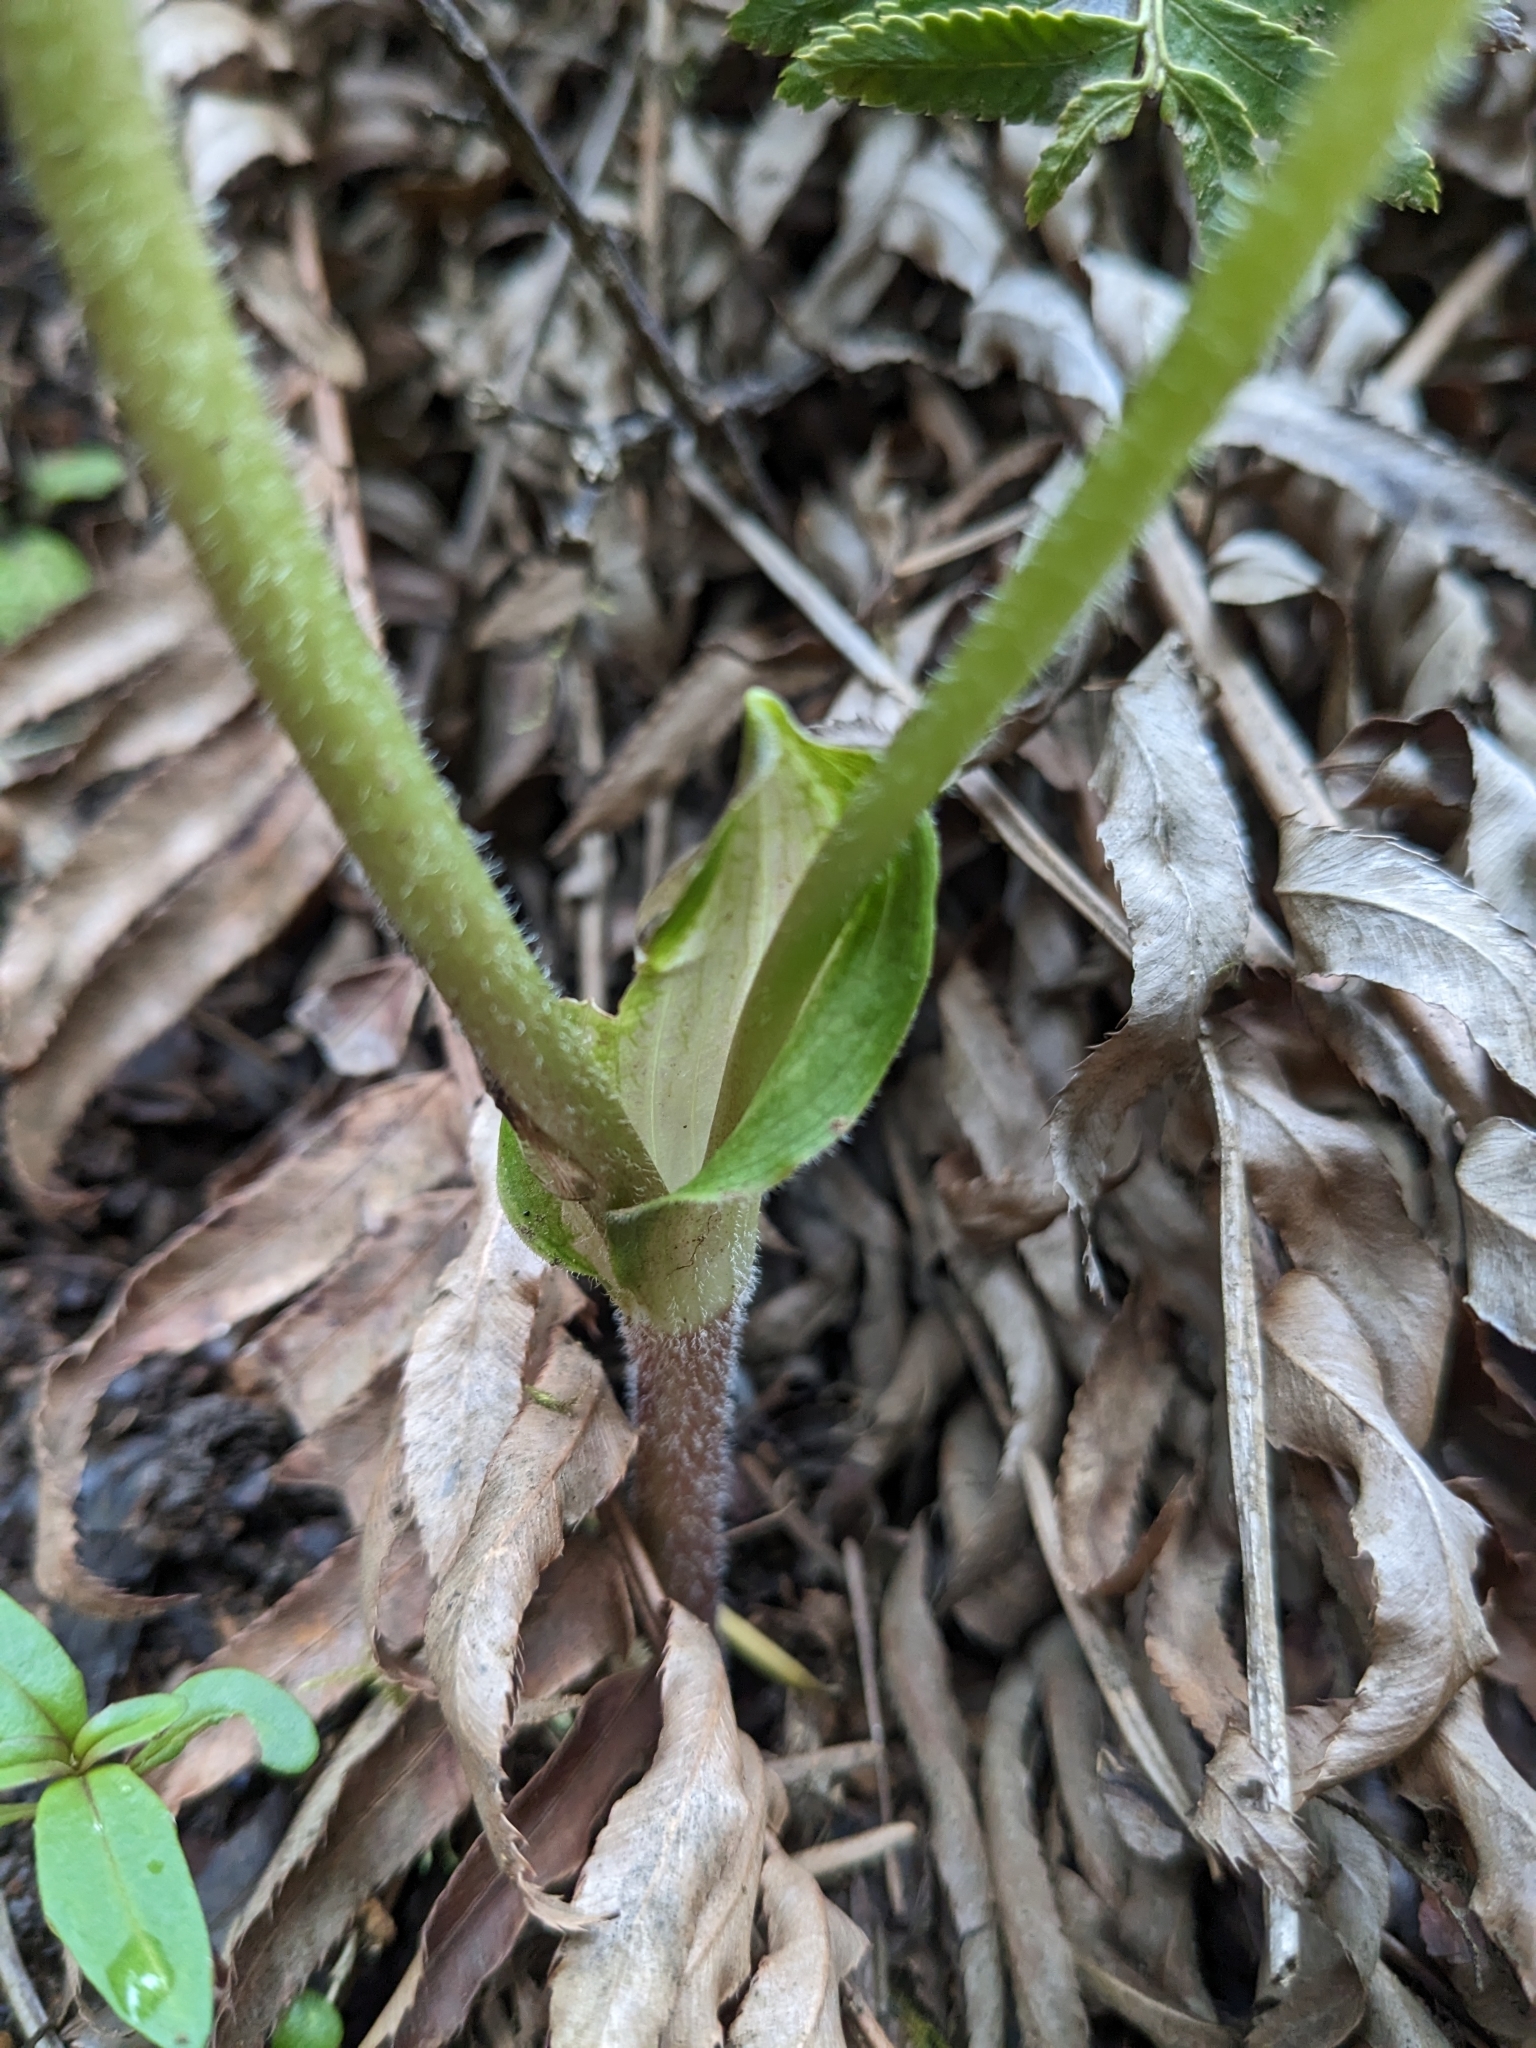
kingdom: Plantae
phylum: Tracheophyta
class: Liliopsida
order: Liliales
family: Liliaceae
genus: Prosartes
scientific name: Prosartes smithii
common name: Fairy-lantern
